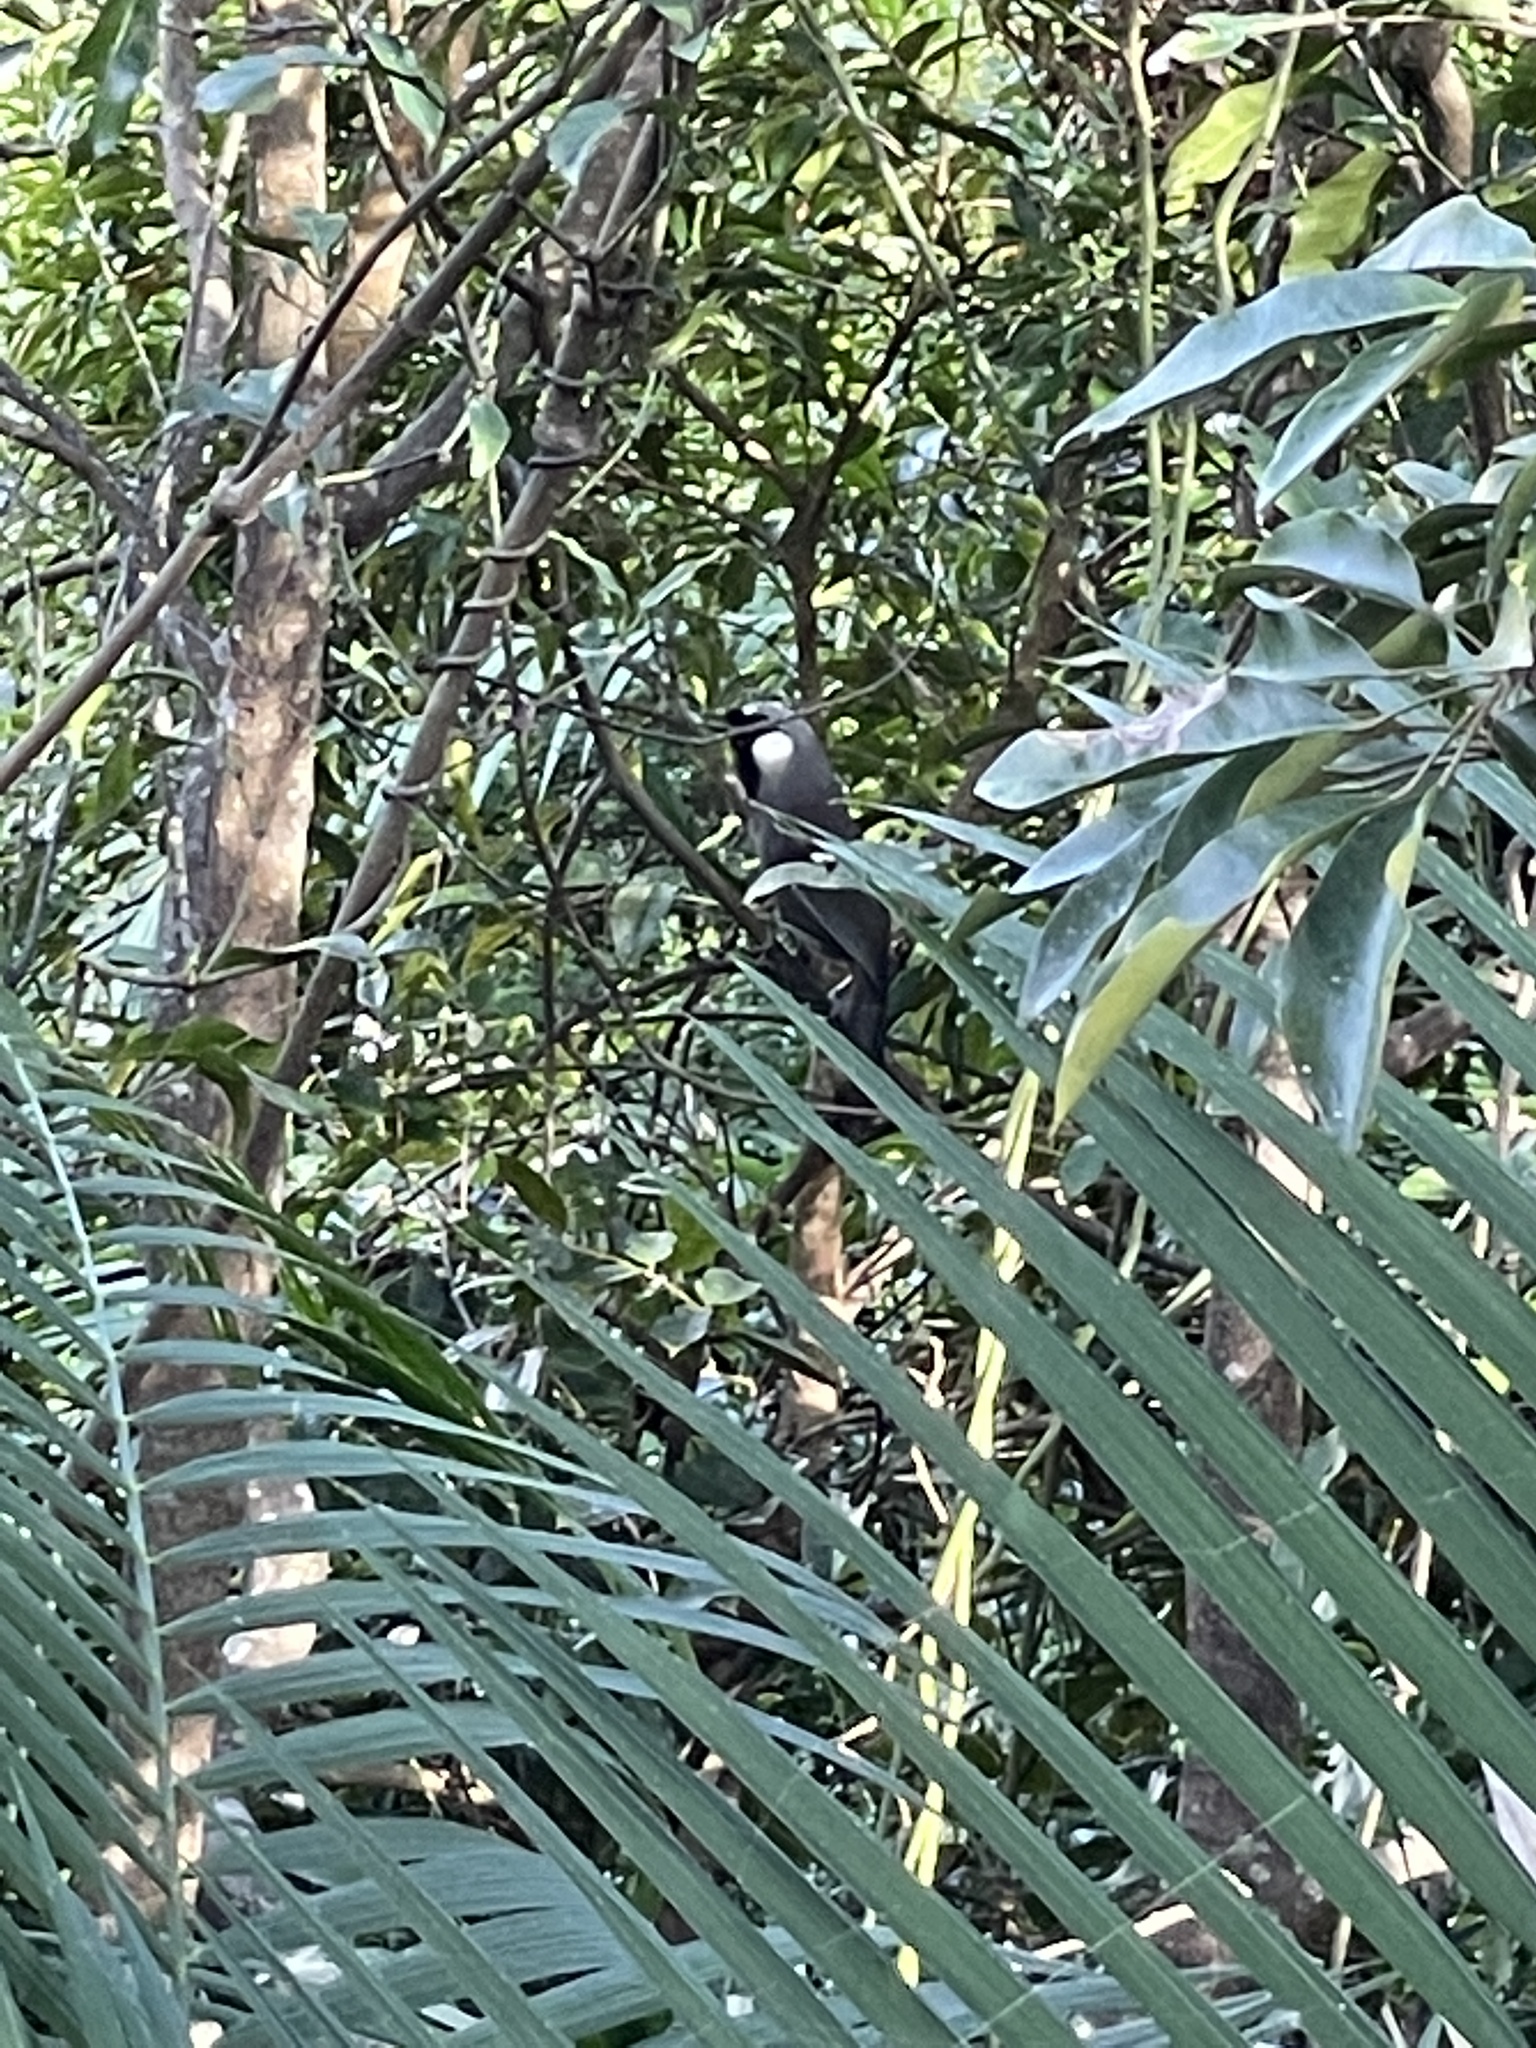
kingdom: Animalia
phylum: Chordata
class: Aves
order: Passeriformes
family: Leiothrichidae
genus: Garrulax
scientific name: Garrulax chinensis
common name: Black-throated laughingthrush
